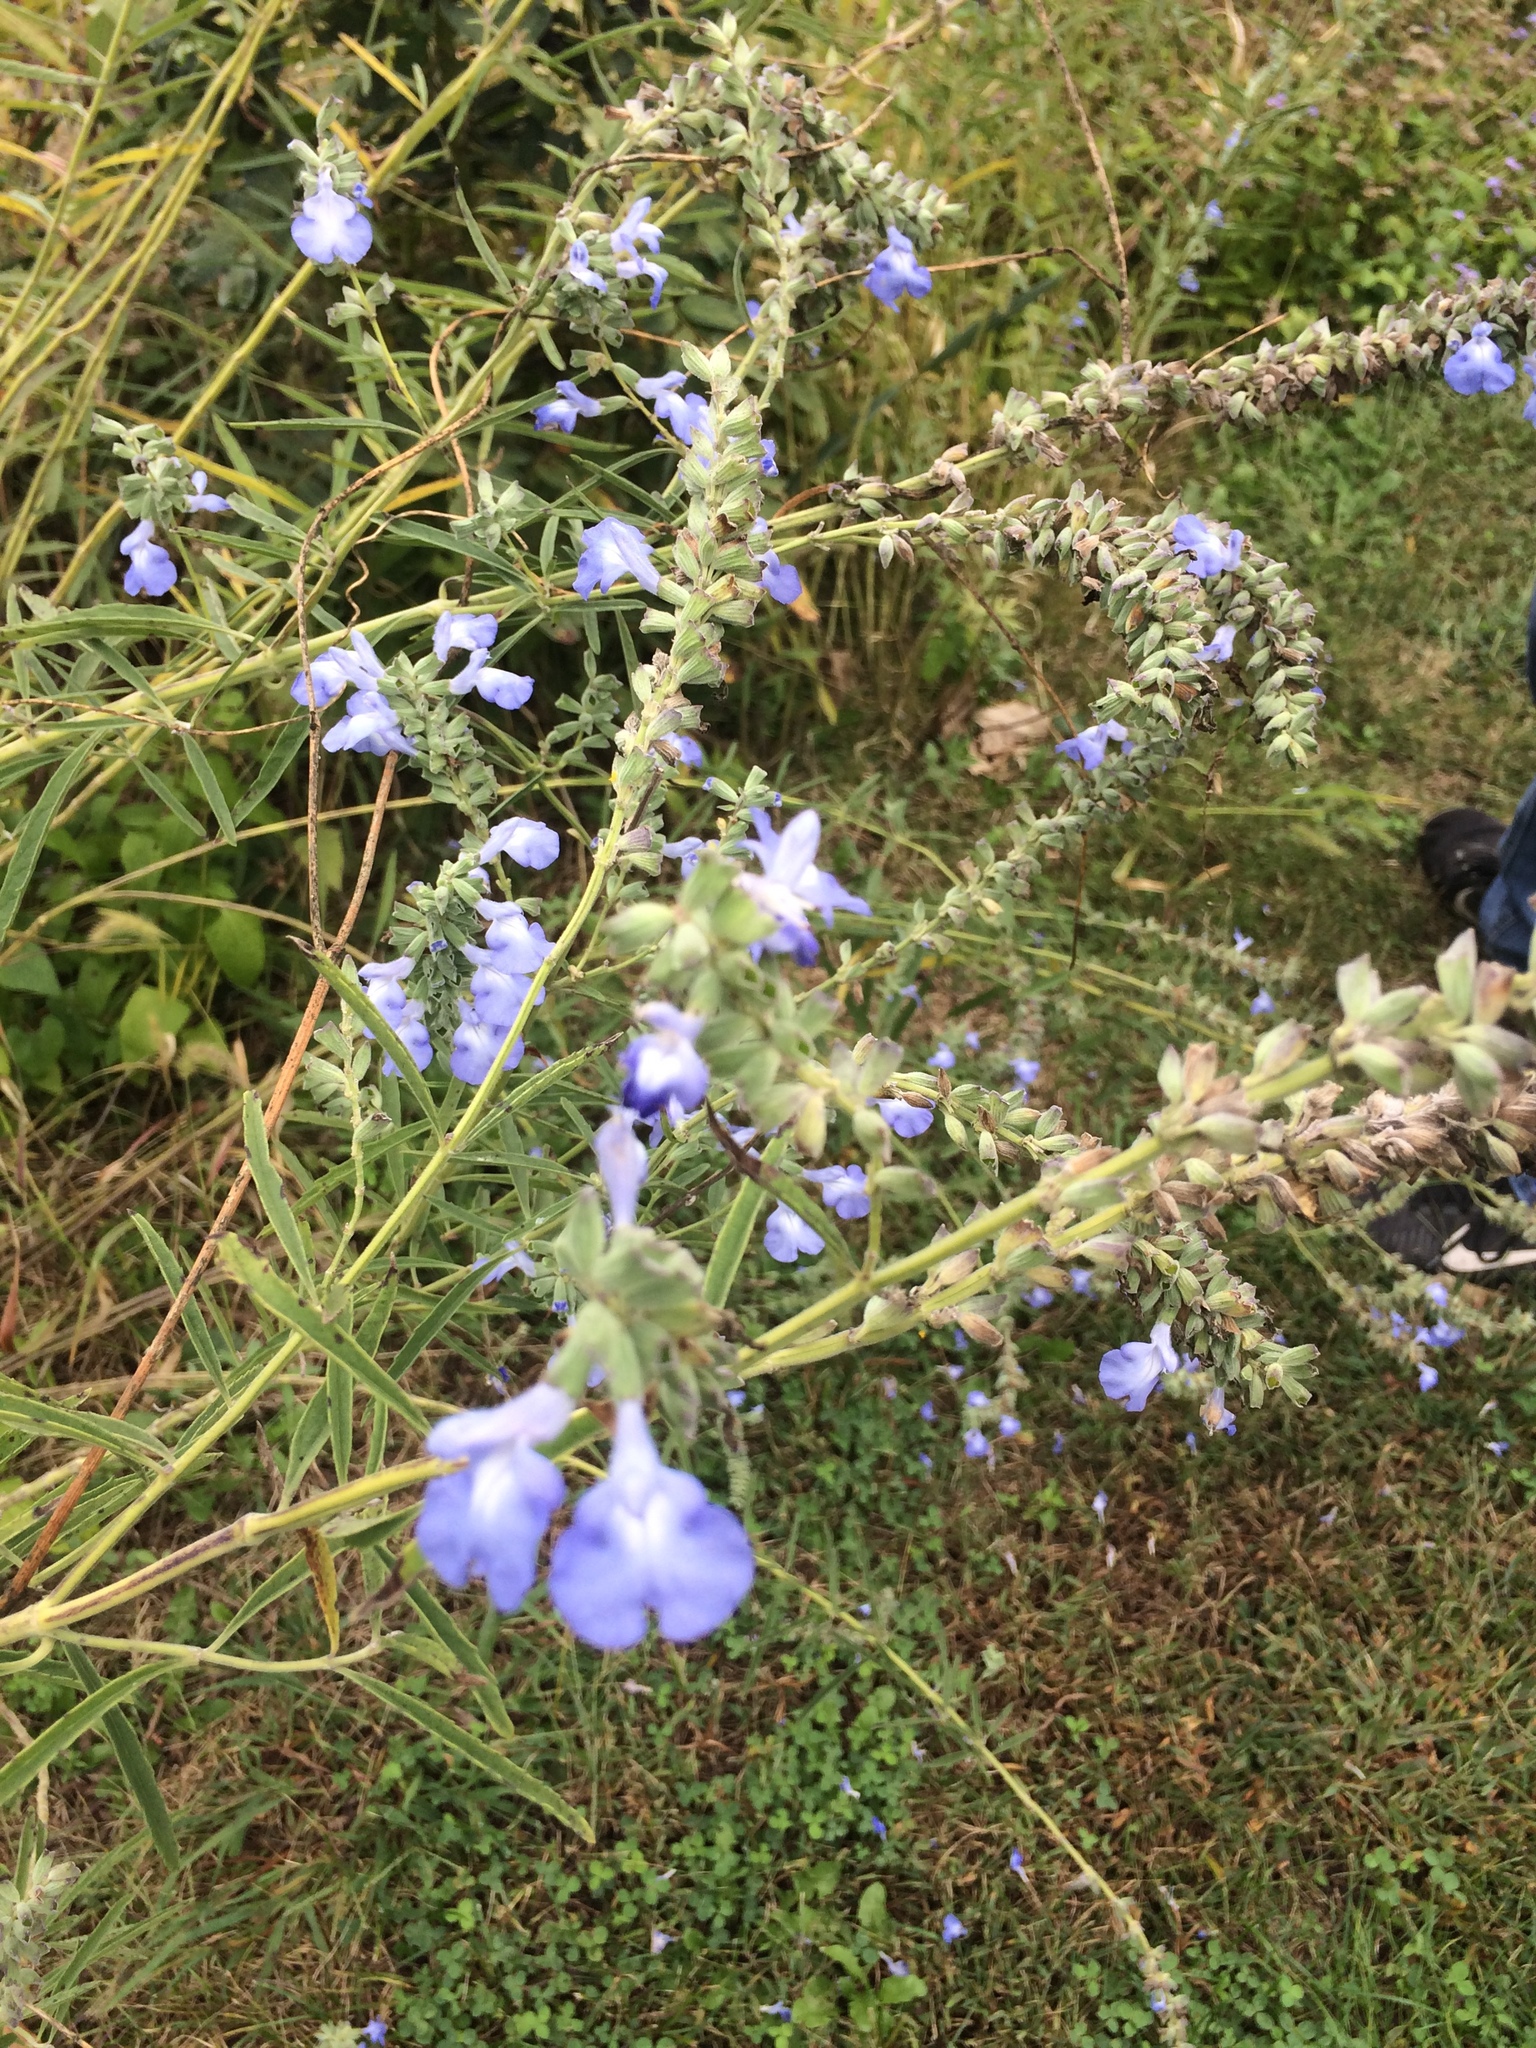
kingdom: Plantae
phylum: Tracheophyta
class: Magnoliopsida
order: Lamiales
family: Lamiaceae
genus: Salvia
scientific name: Salvia azurea
